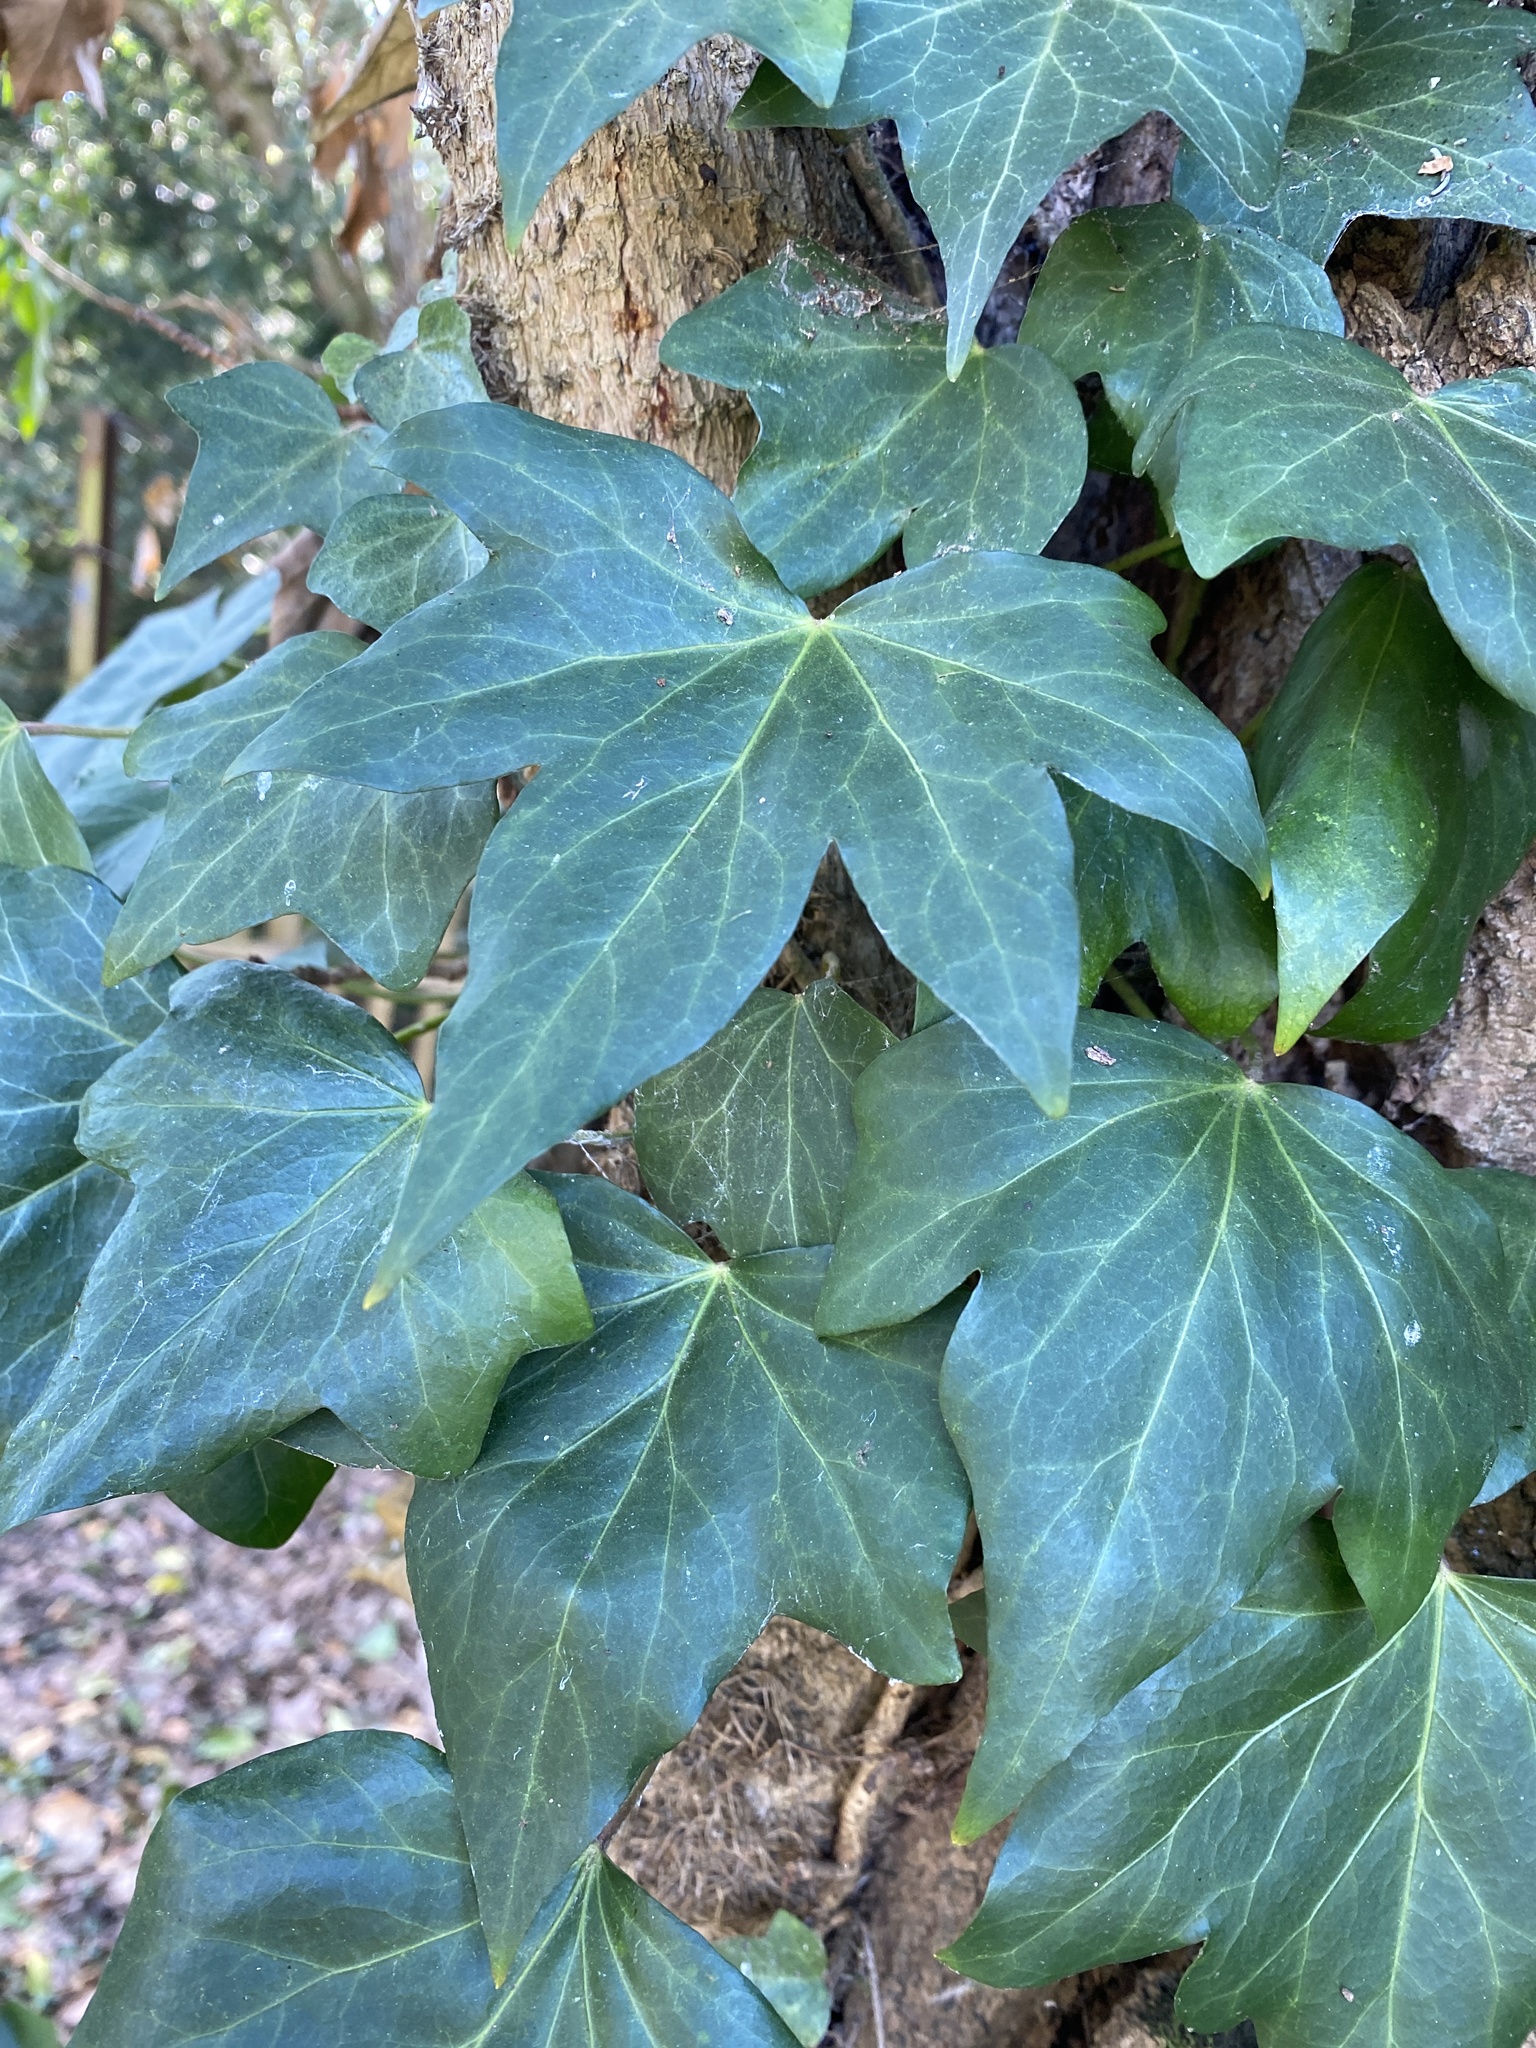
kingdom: Plantae
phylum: Tracheophyta
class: Magnoliopsida
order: Apiales
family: Araliaceae
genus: Hedera
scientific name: Hedera helix
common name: Ivy
